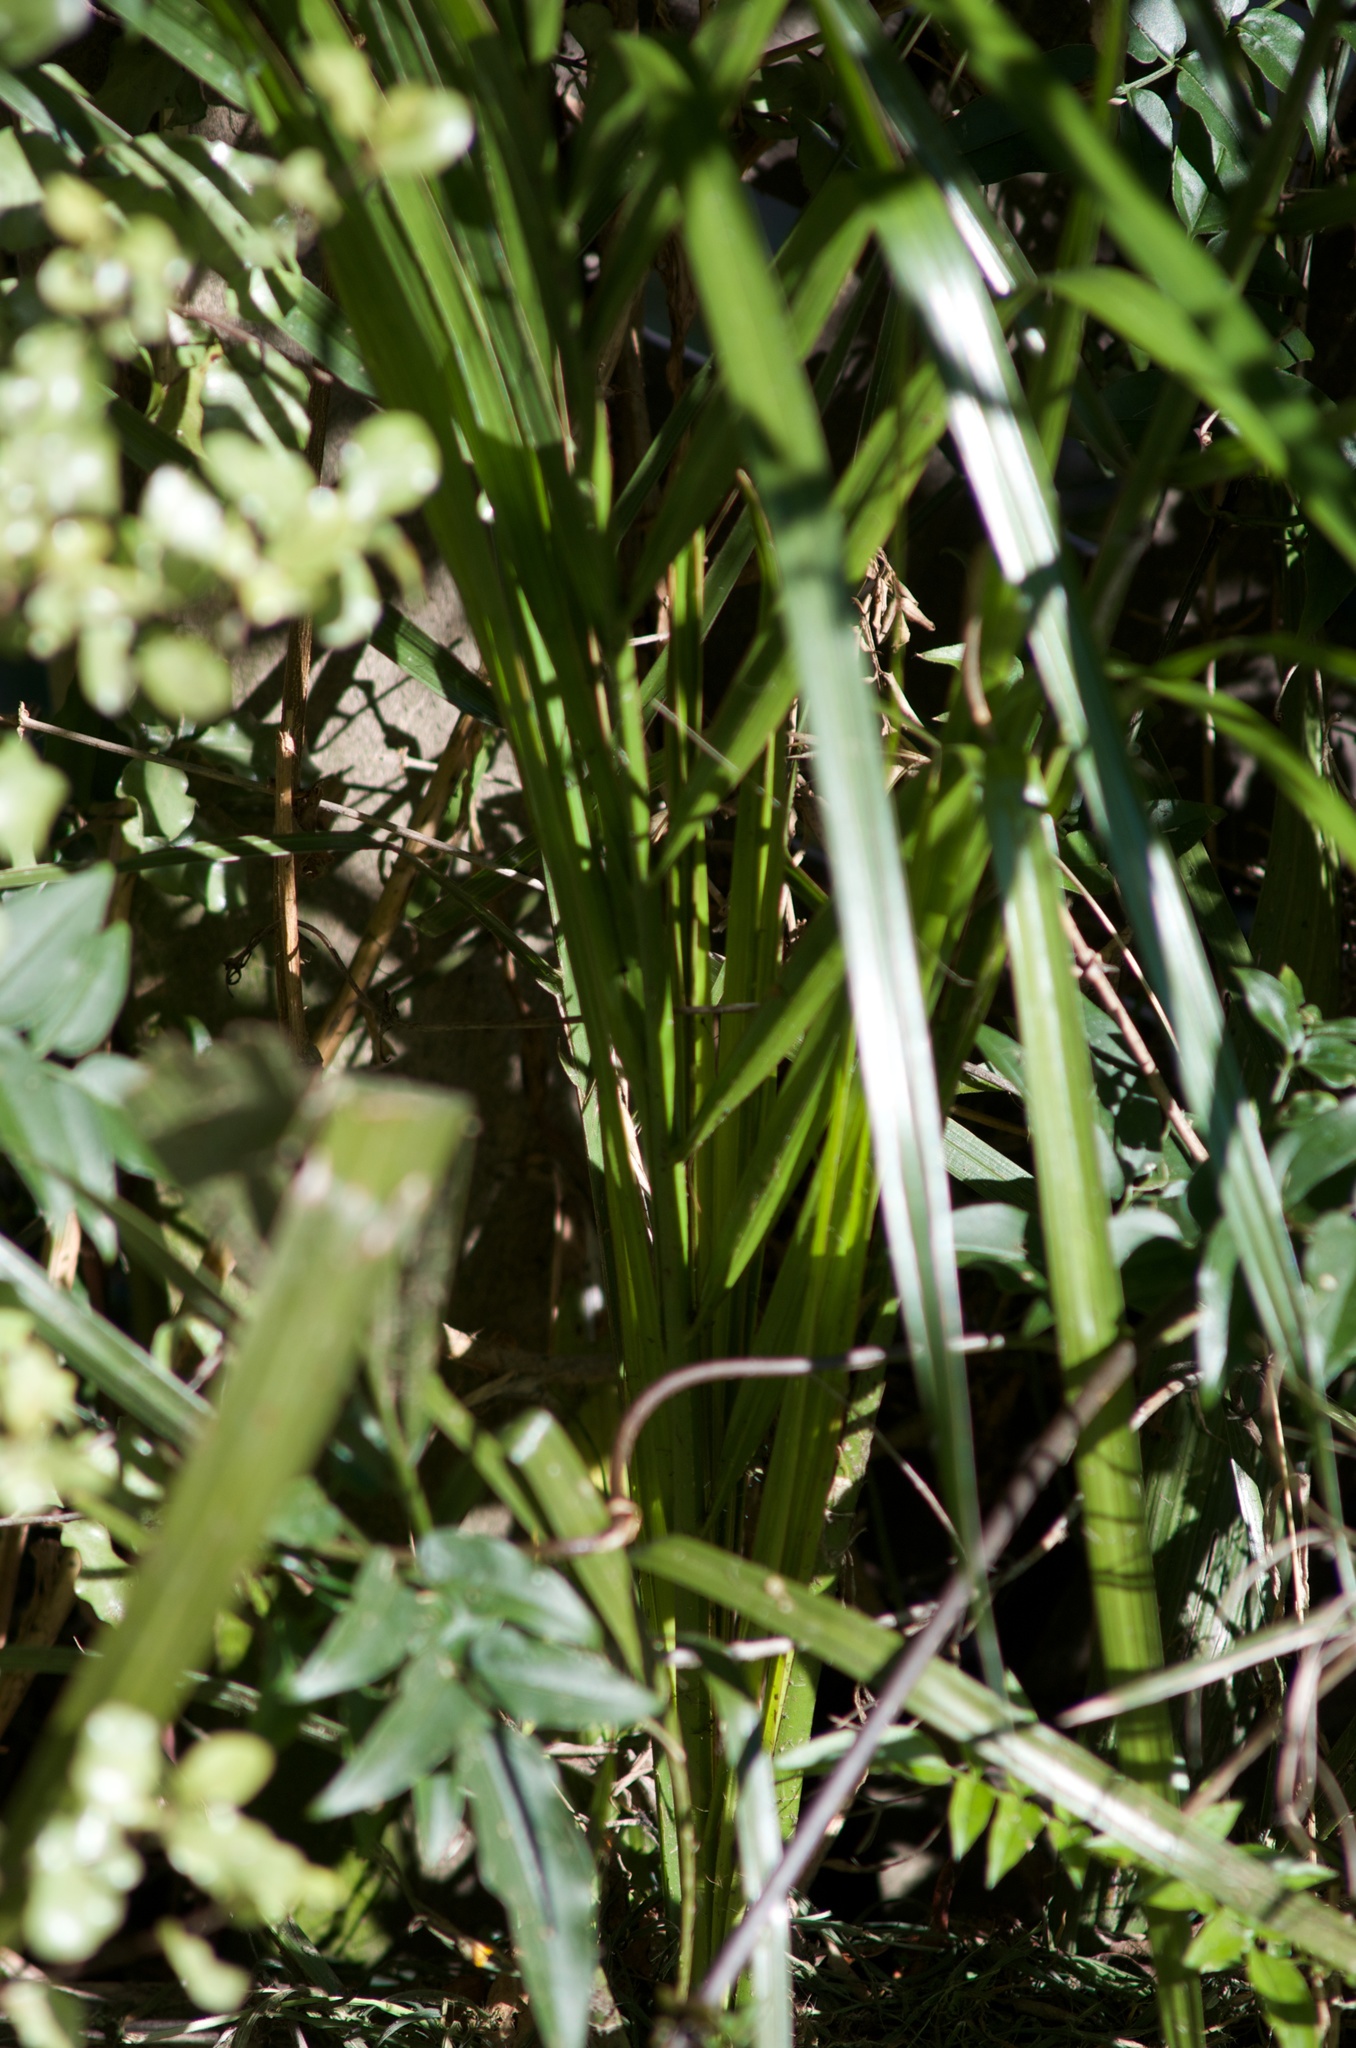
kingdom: Plantae
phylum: Tracheophyta
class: Liliopsida
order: Arecales
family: Arecaceae
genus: Phoenix
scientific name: Phoenix canariensis
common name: Canary island date palm
